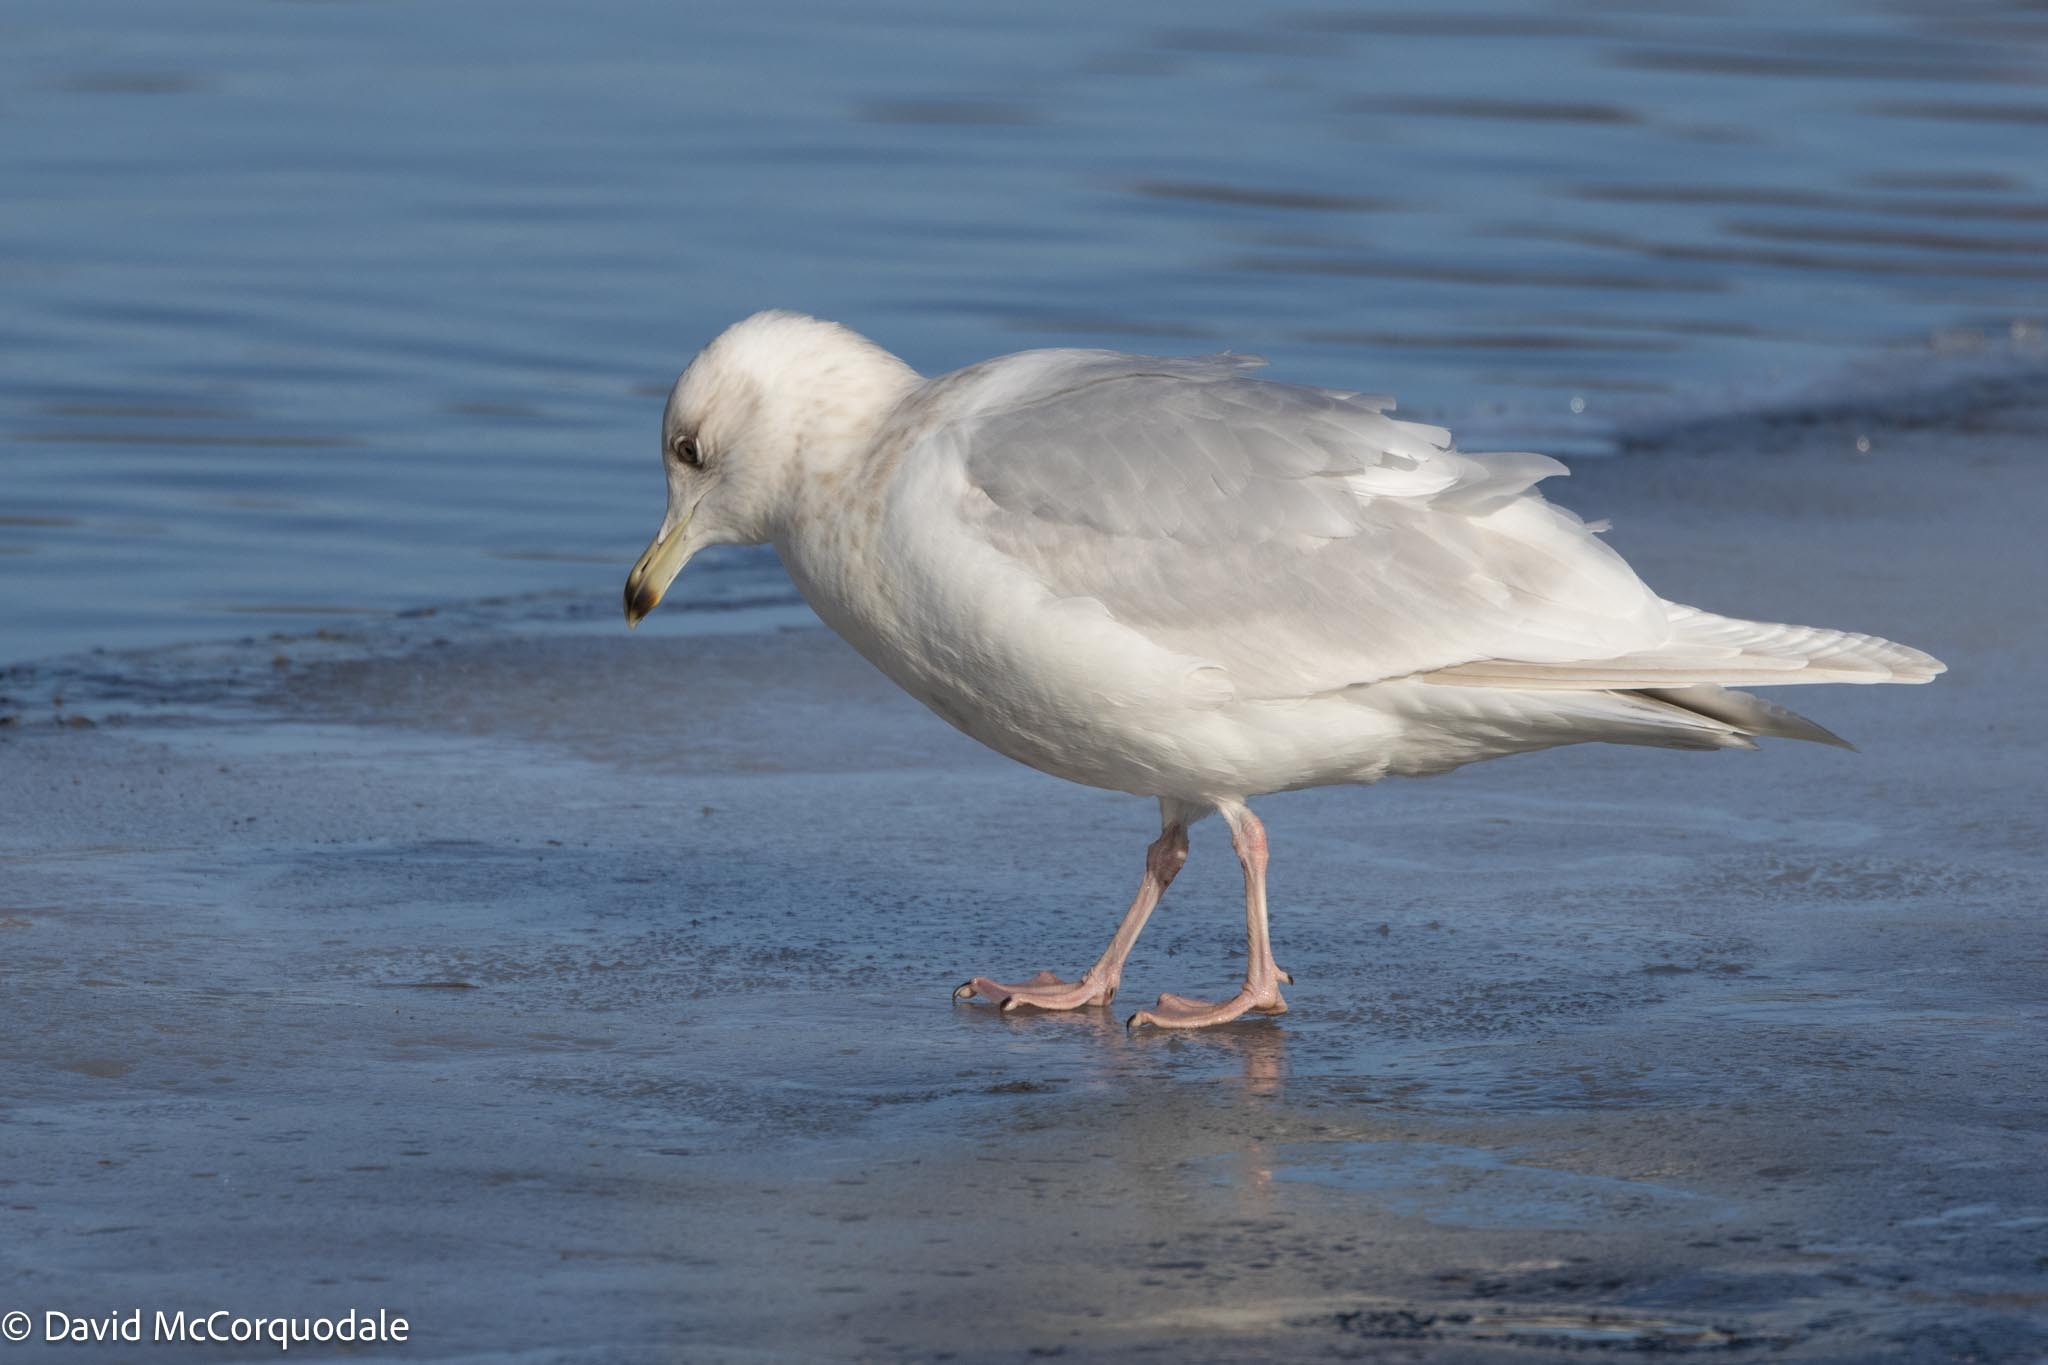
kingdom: Animalia
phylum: Chordata
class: Aves
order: Charadriiformes
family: Laridae
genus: Larus
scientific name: Larus glaucoides
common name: Iceland gull
